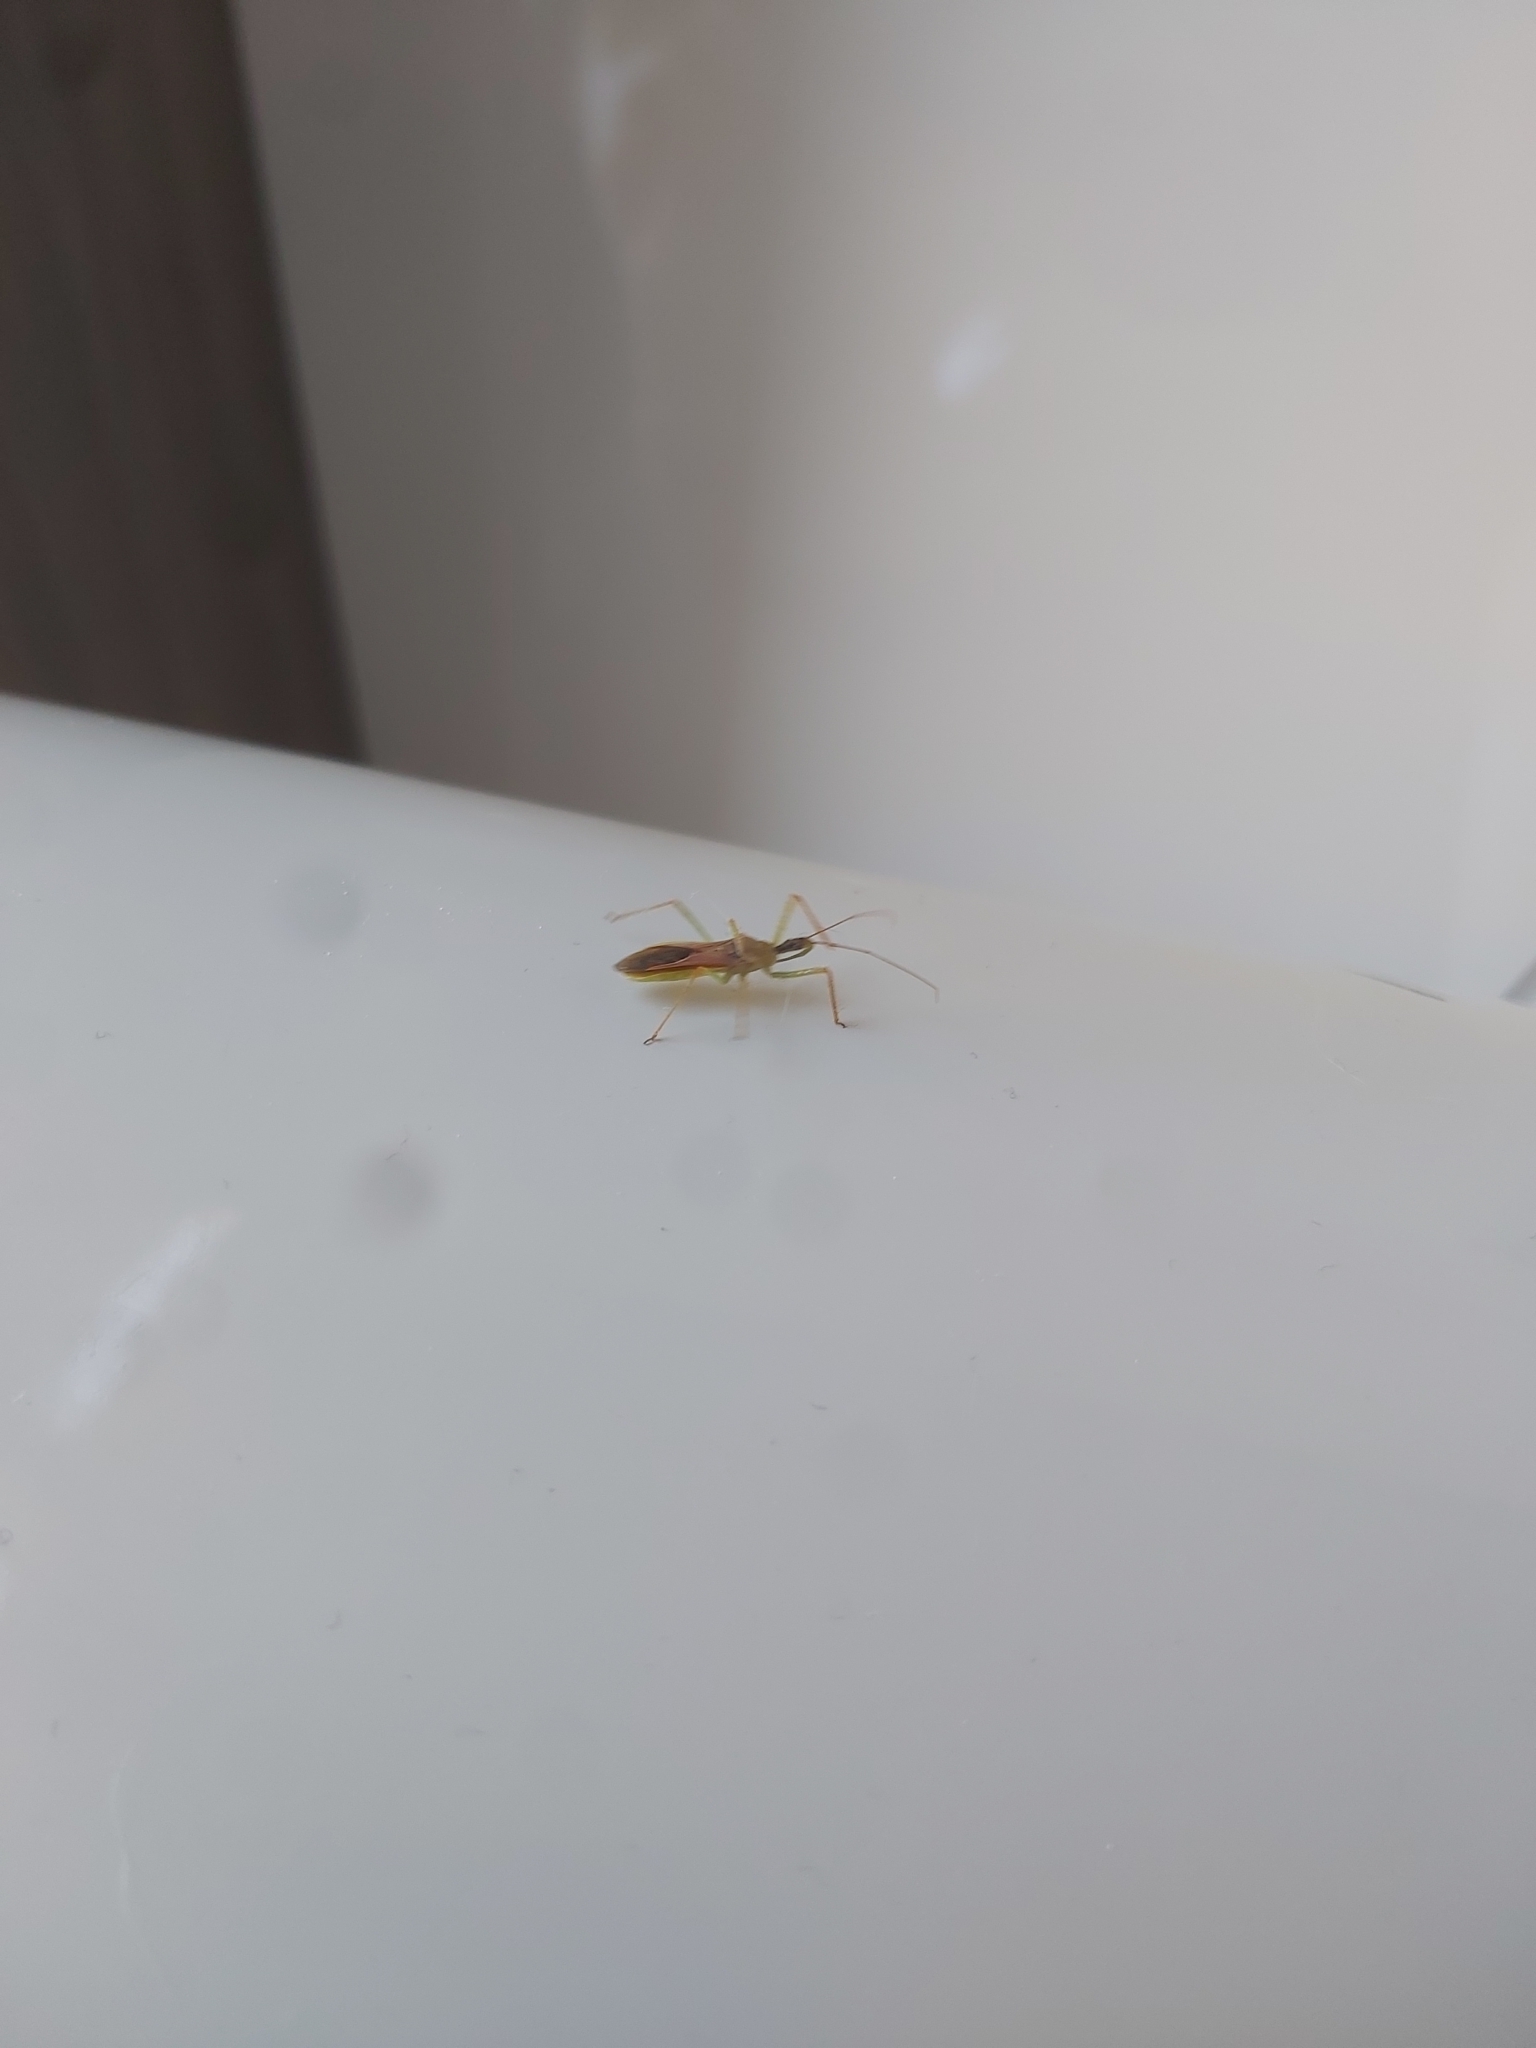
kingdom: Animalia
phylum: Arthropoda
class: Insecta
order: Hemiptera
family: Reduviidae
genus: Zelus
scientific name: Zelus renardii
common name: Assassin bug
